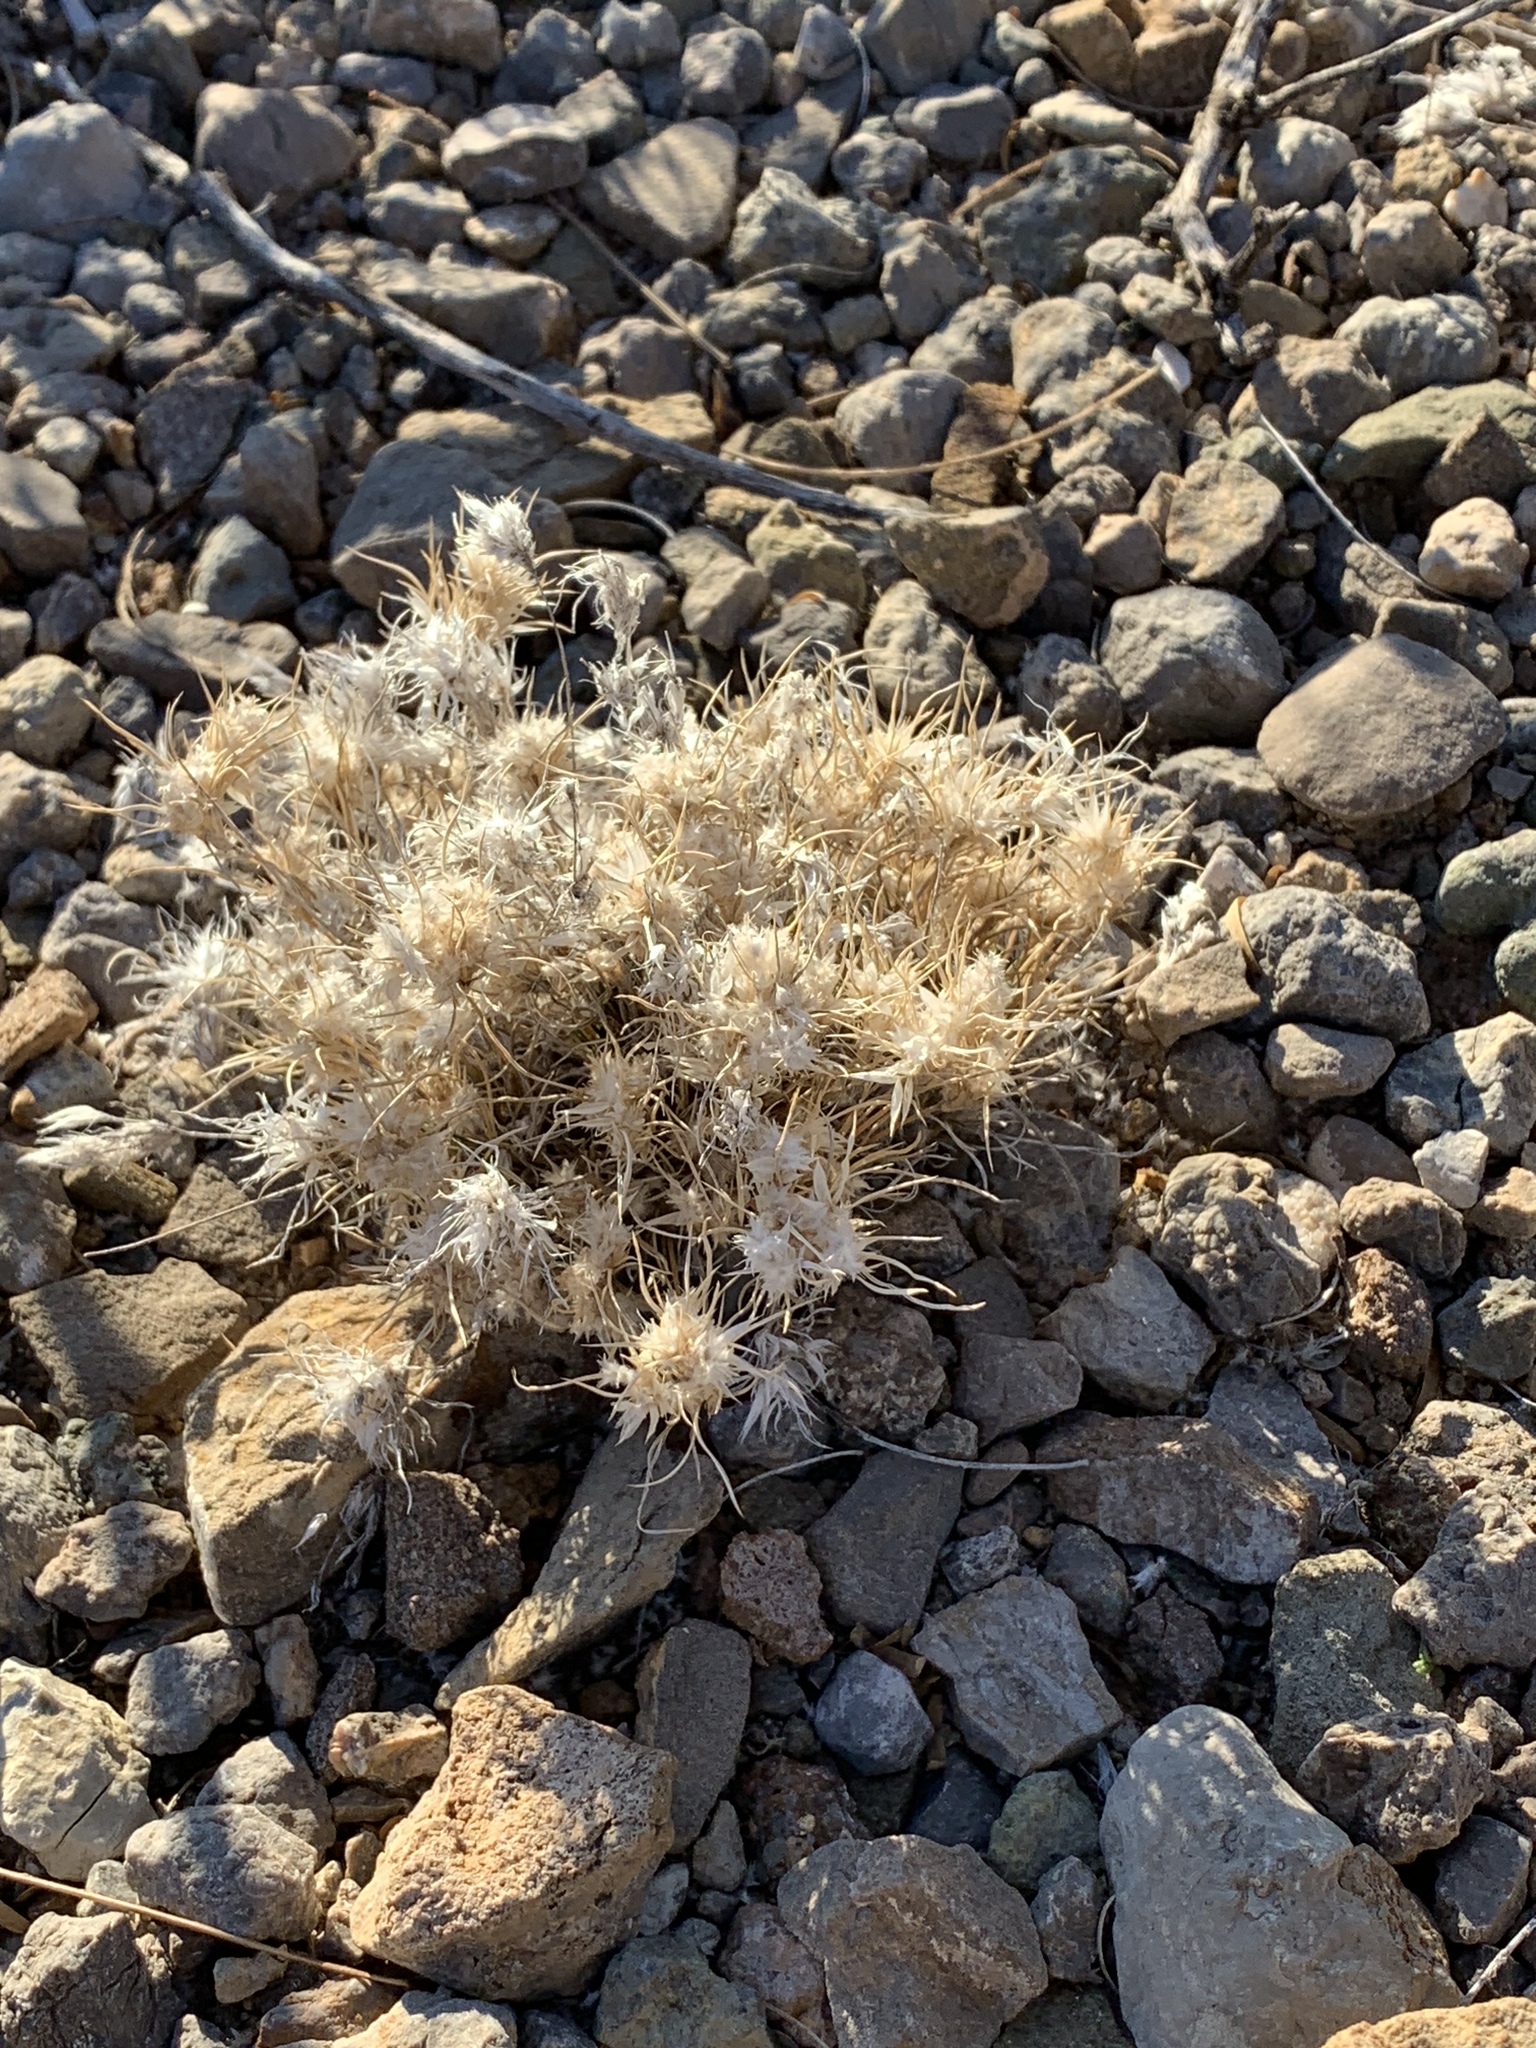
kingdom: Plantae
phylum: Tracheophyta
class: Liliopsida
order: Poales
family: Poaceae
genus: Dasyochloa
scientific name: Dasyochloa pulchella
